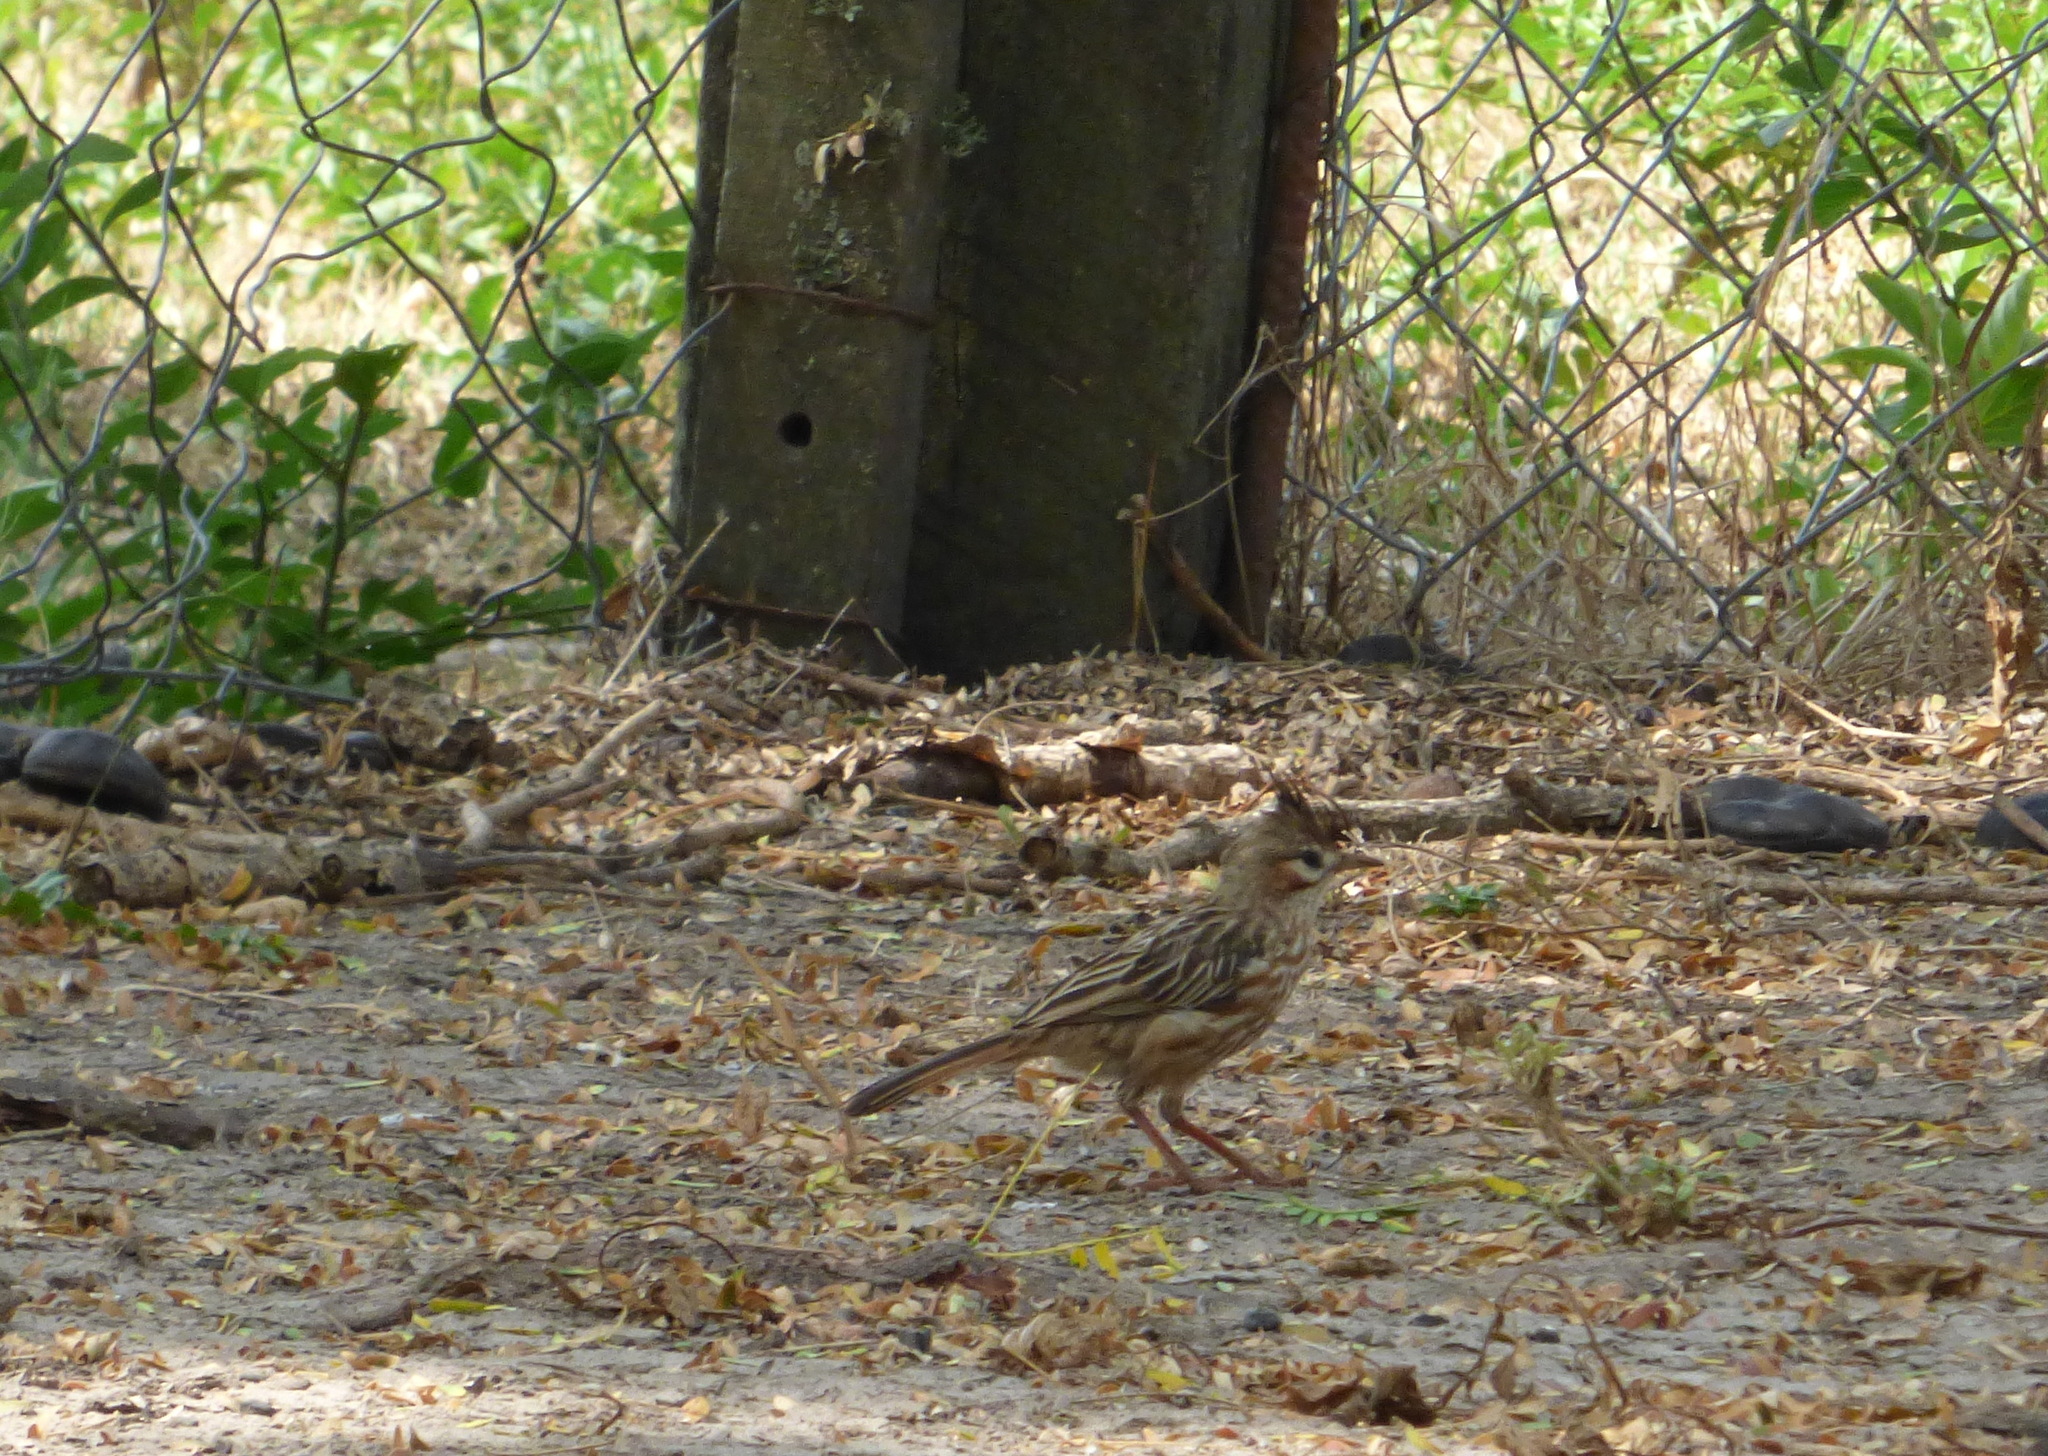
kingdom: Animalia
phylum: Chordata
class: Aves
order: Passeriformes
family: Furnariidae
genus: Coryphistera
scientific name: Coryphistera alaudina
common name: Lark-like brushrunner
